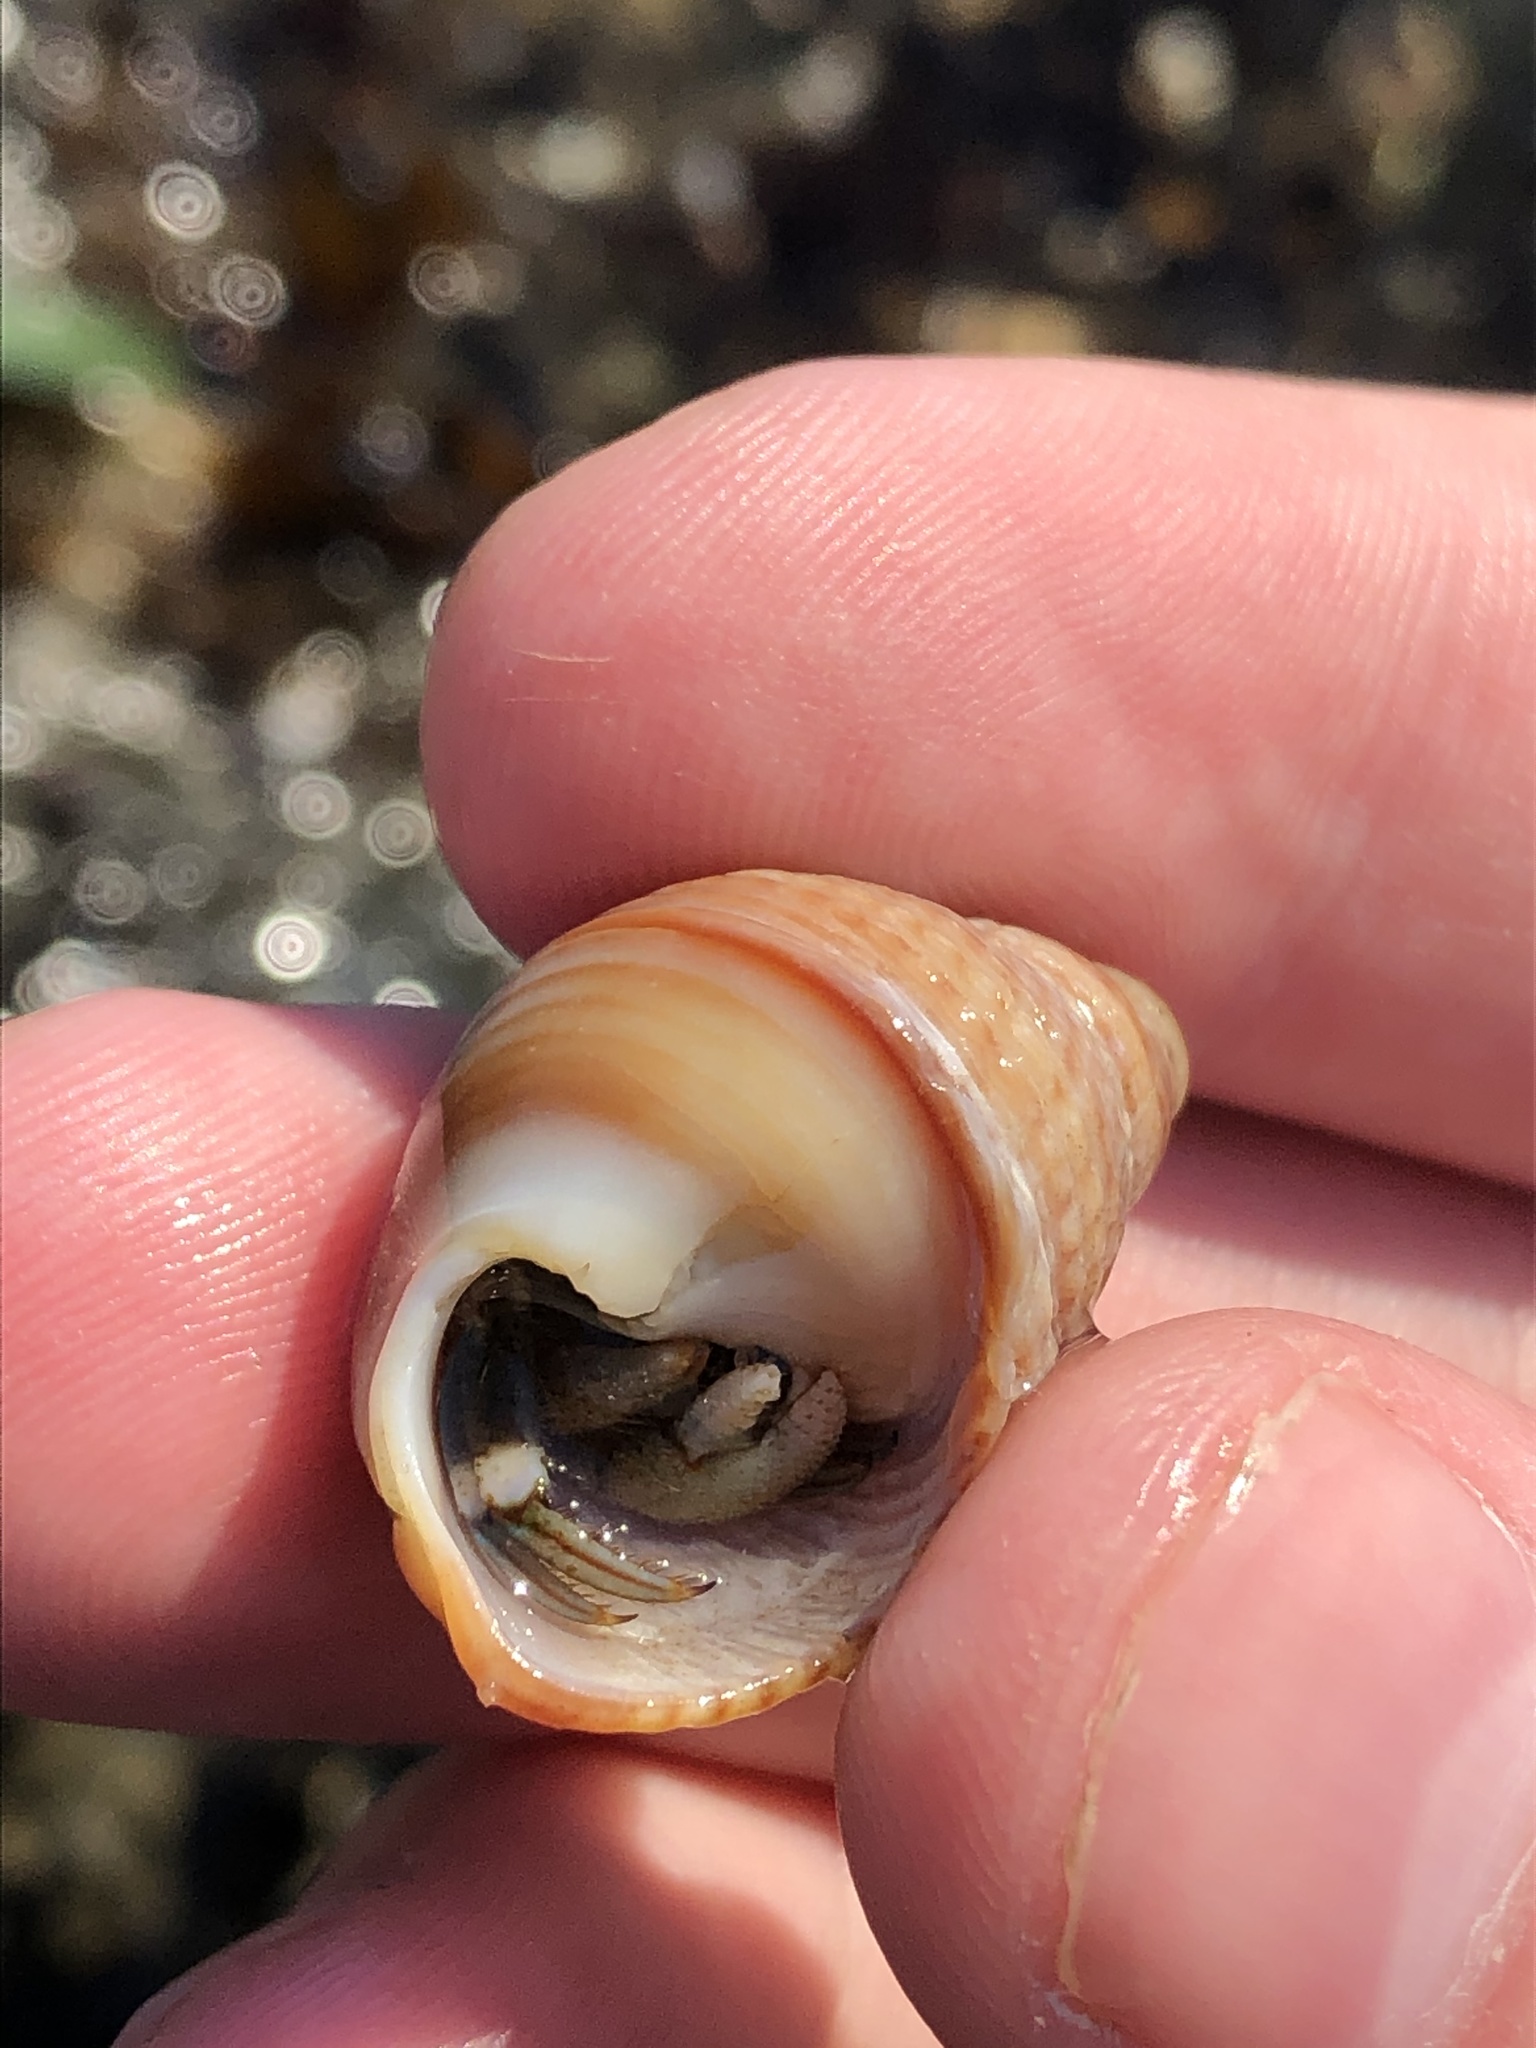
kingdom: Animalia
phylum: Arthropoda
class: Malacostraca
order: Decapoda
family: Paguridae
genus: Pagurus
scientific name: Pagurus hirsutiusculus
